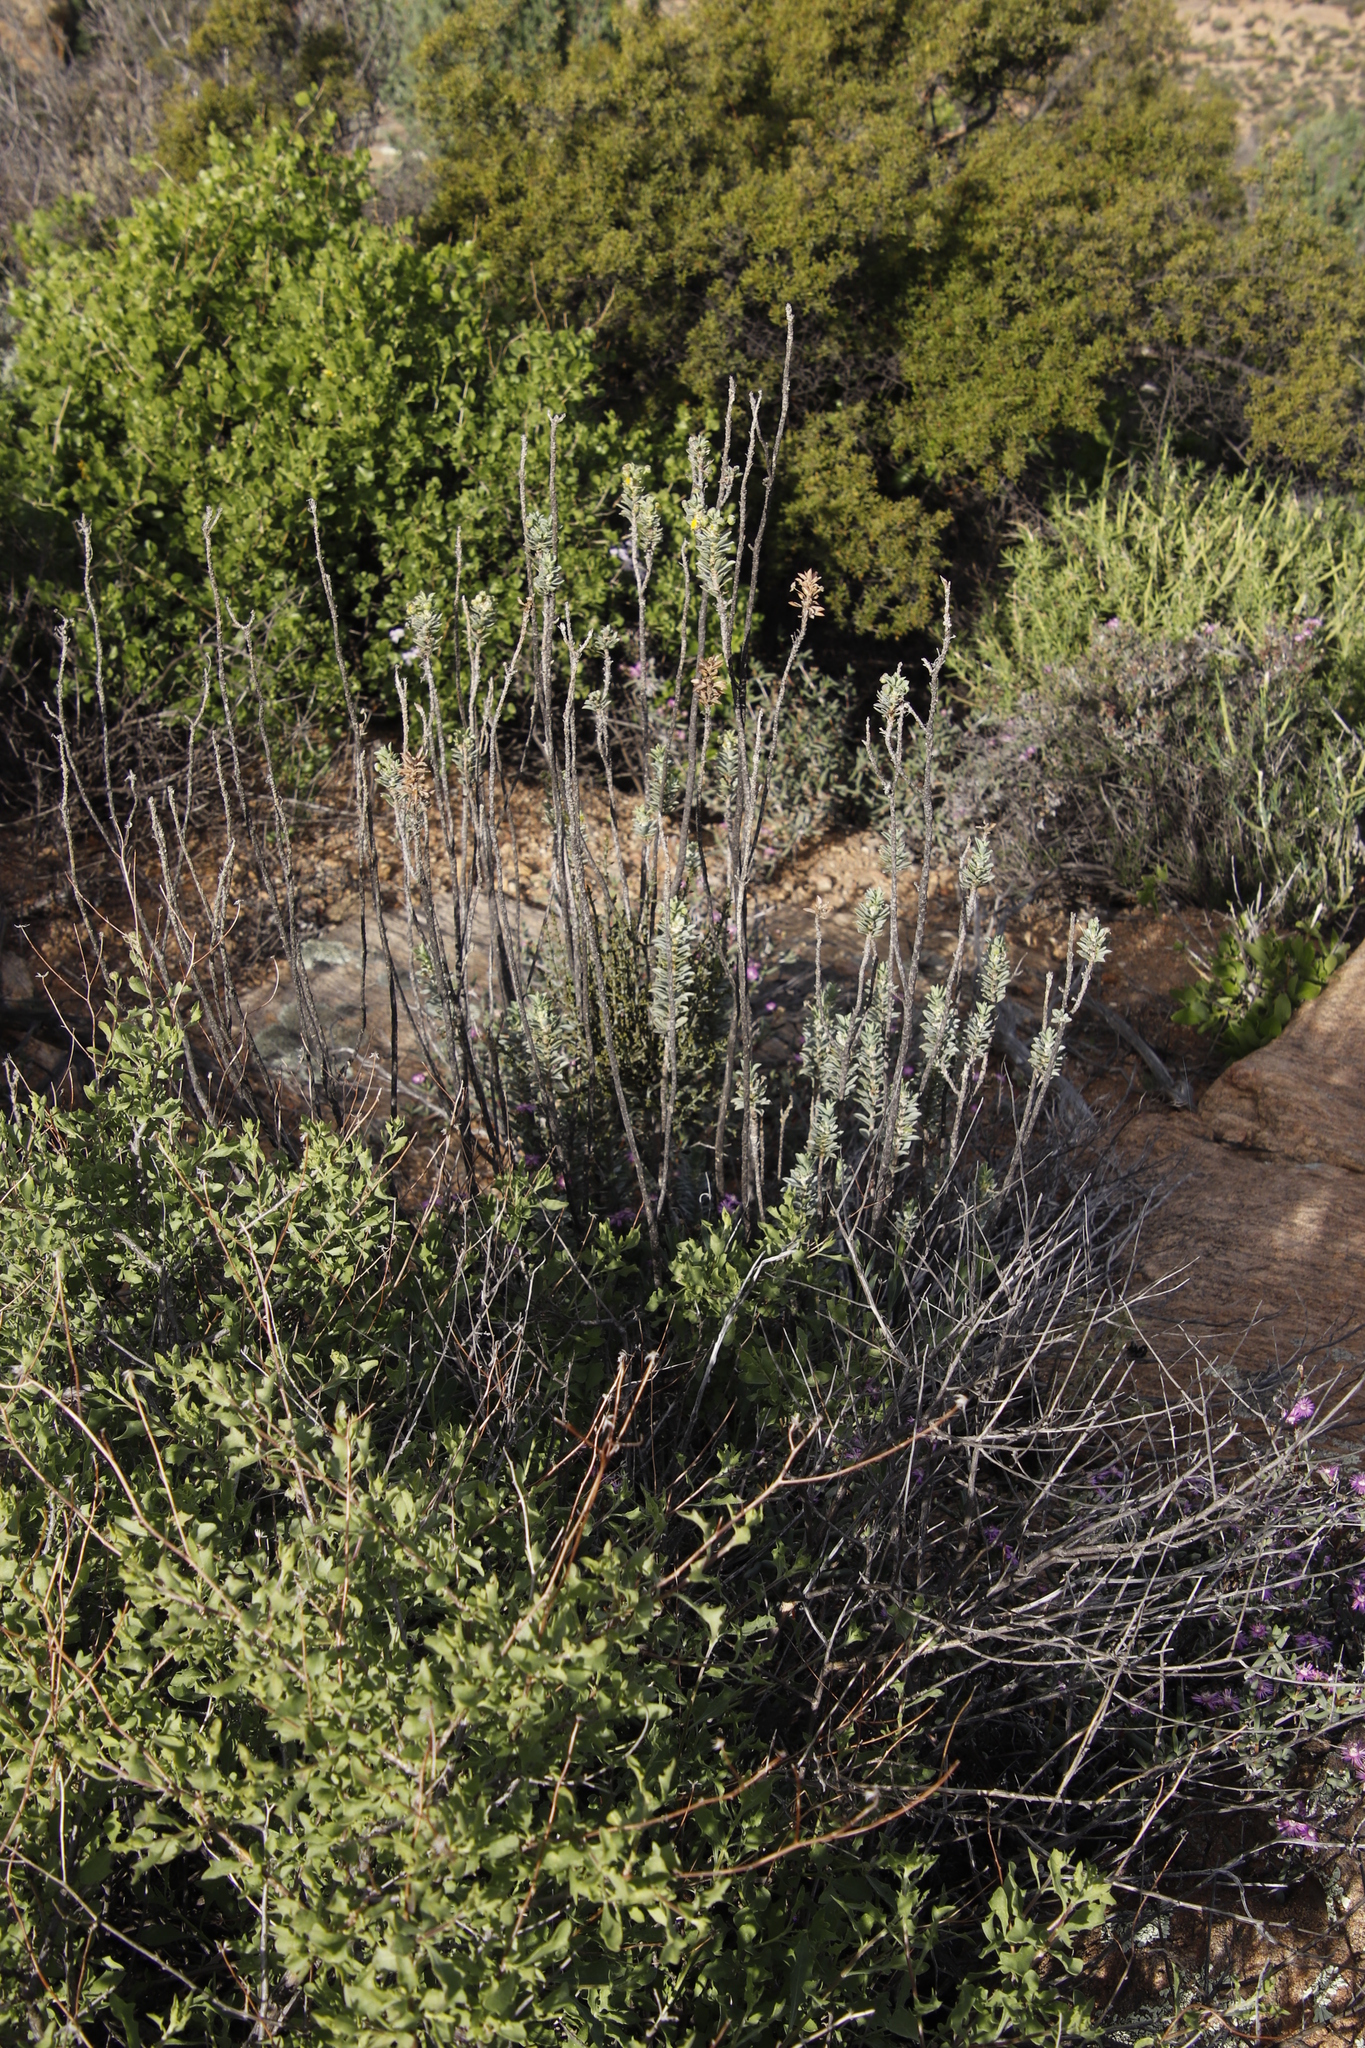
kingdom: Plantae
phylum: Tracheophyta
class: Magnoliopsida
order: Asterales
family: Asteraceae
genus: Euryops
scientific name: Euryops lateriflorus
